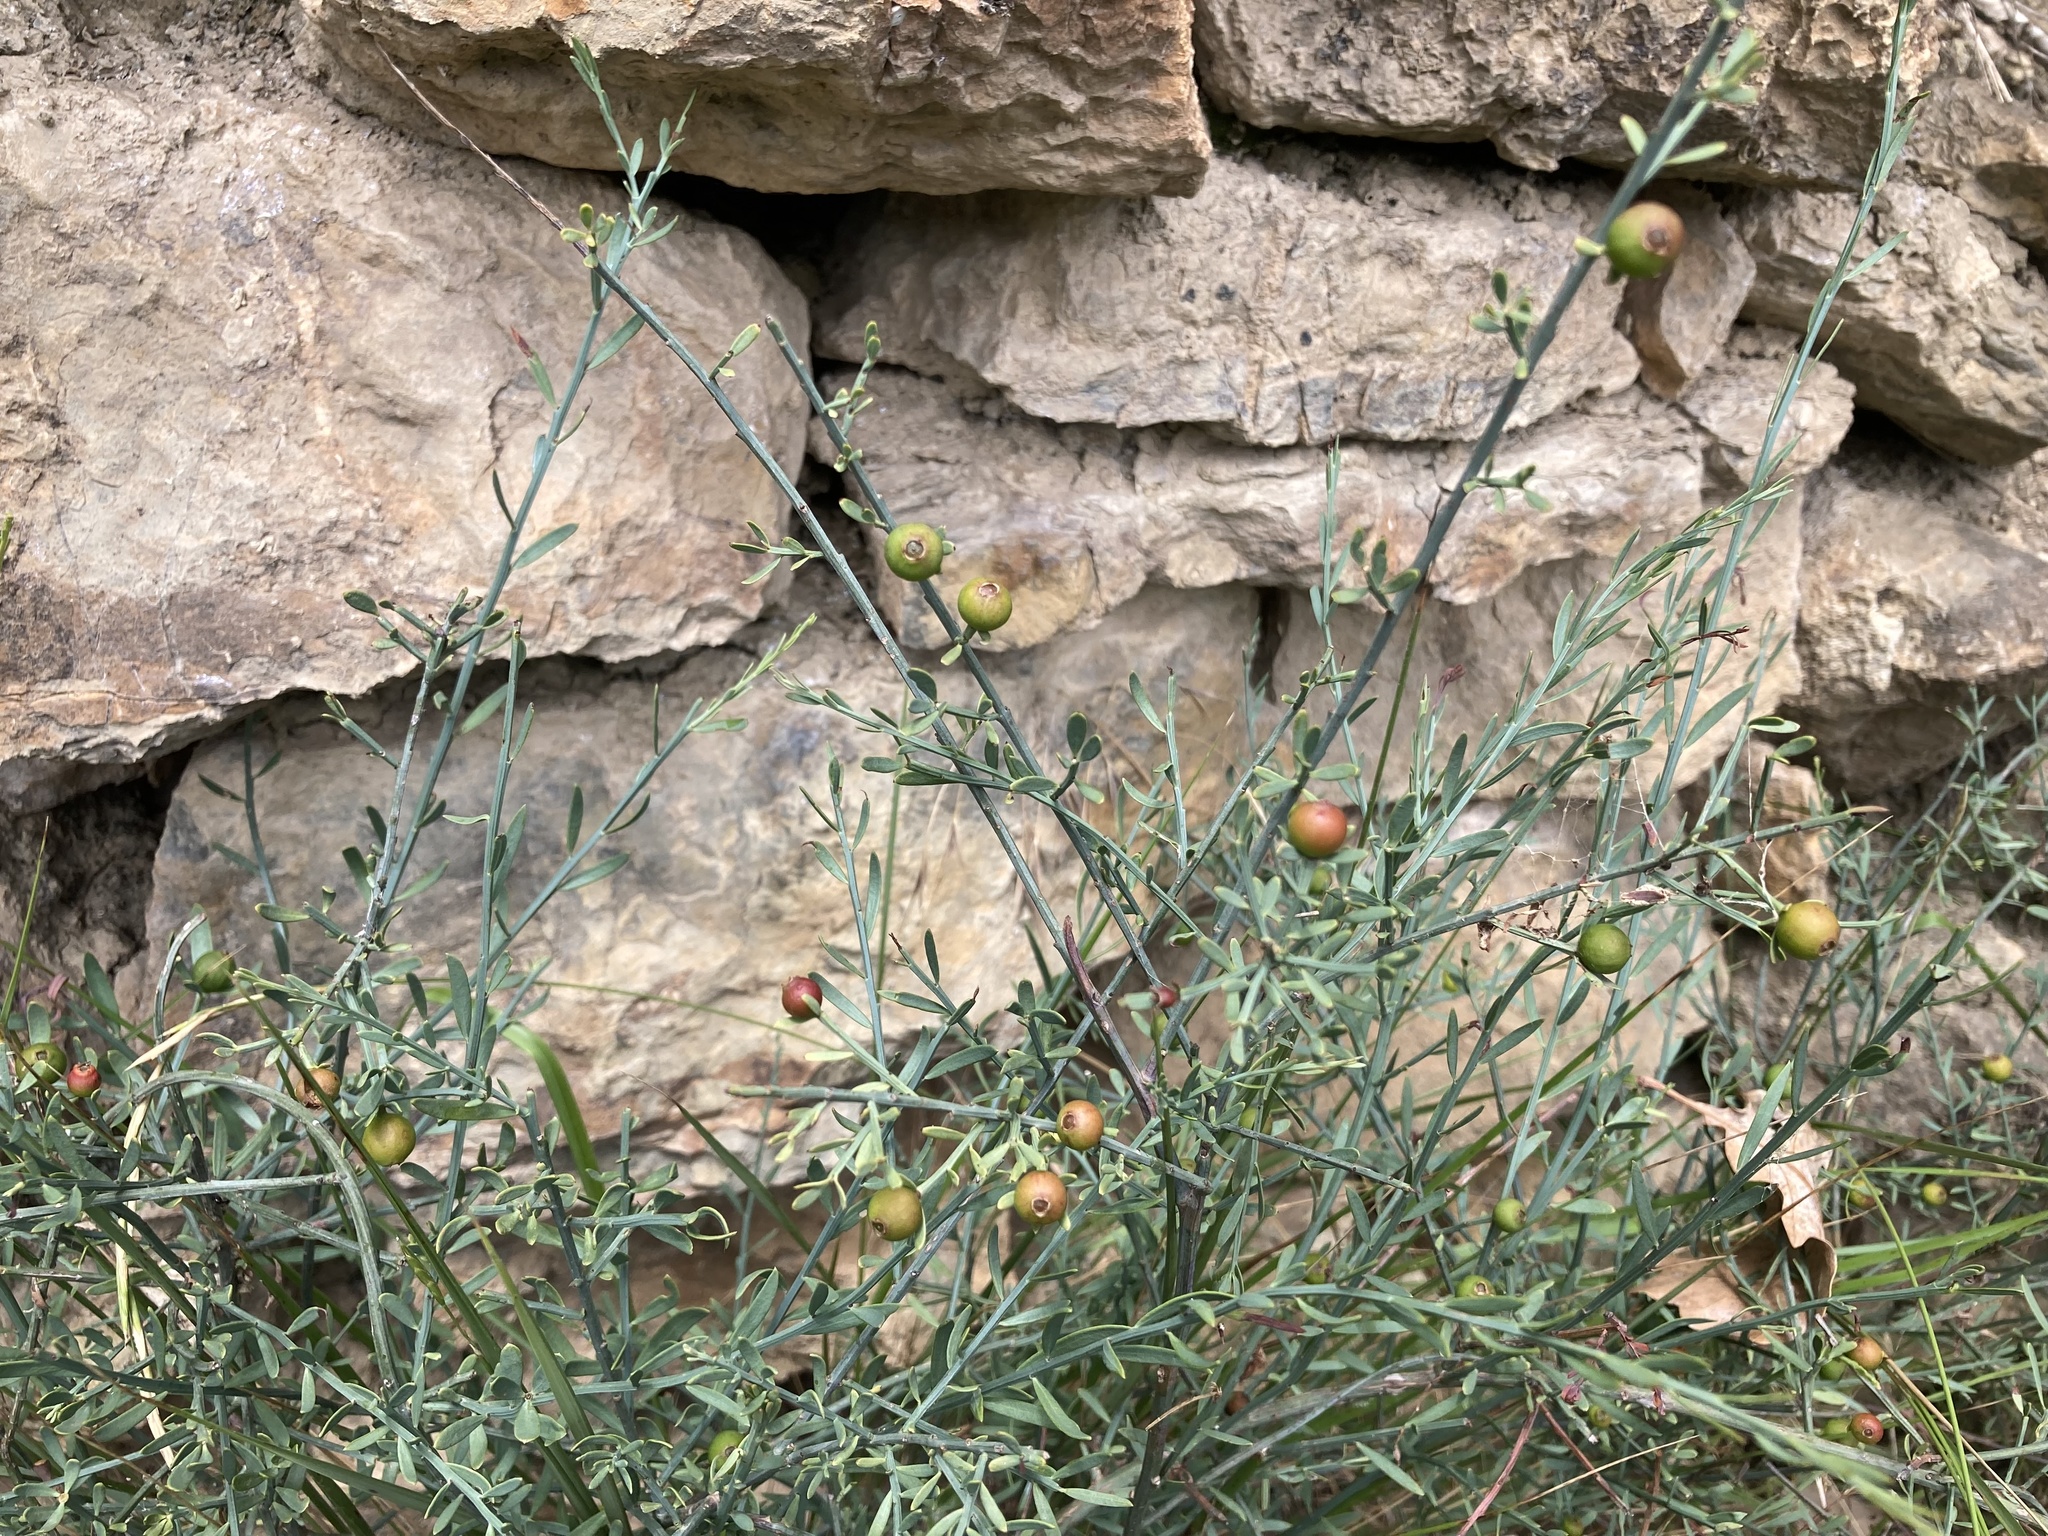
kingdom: Plantae
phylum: Tracheophyta
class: Magnoliopsida
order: Santalales
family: Santalaceae
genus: Osyris
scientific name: Osyris alba
